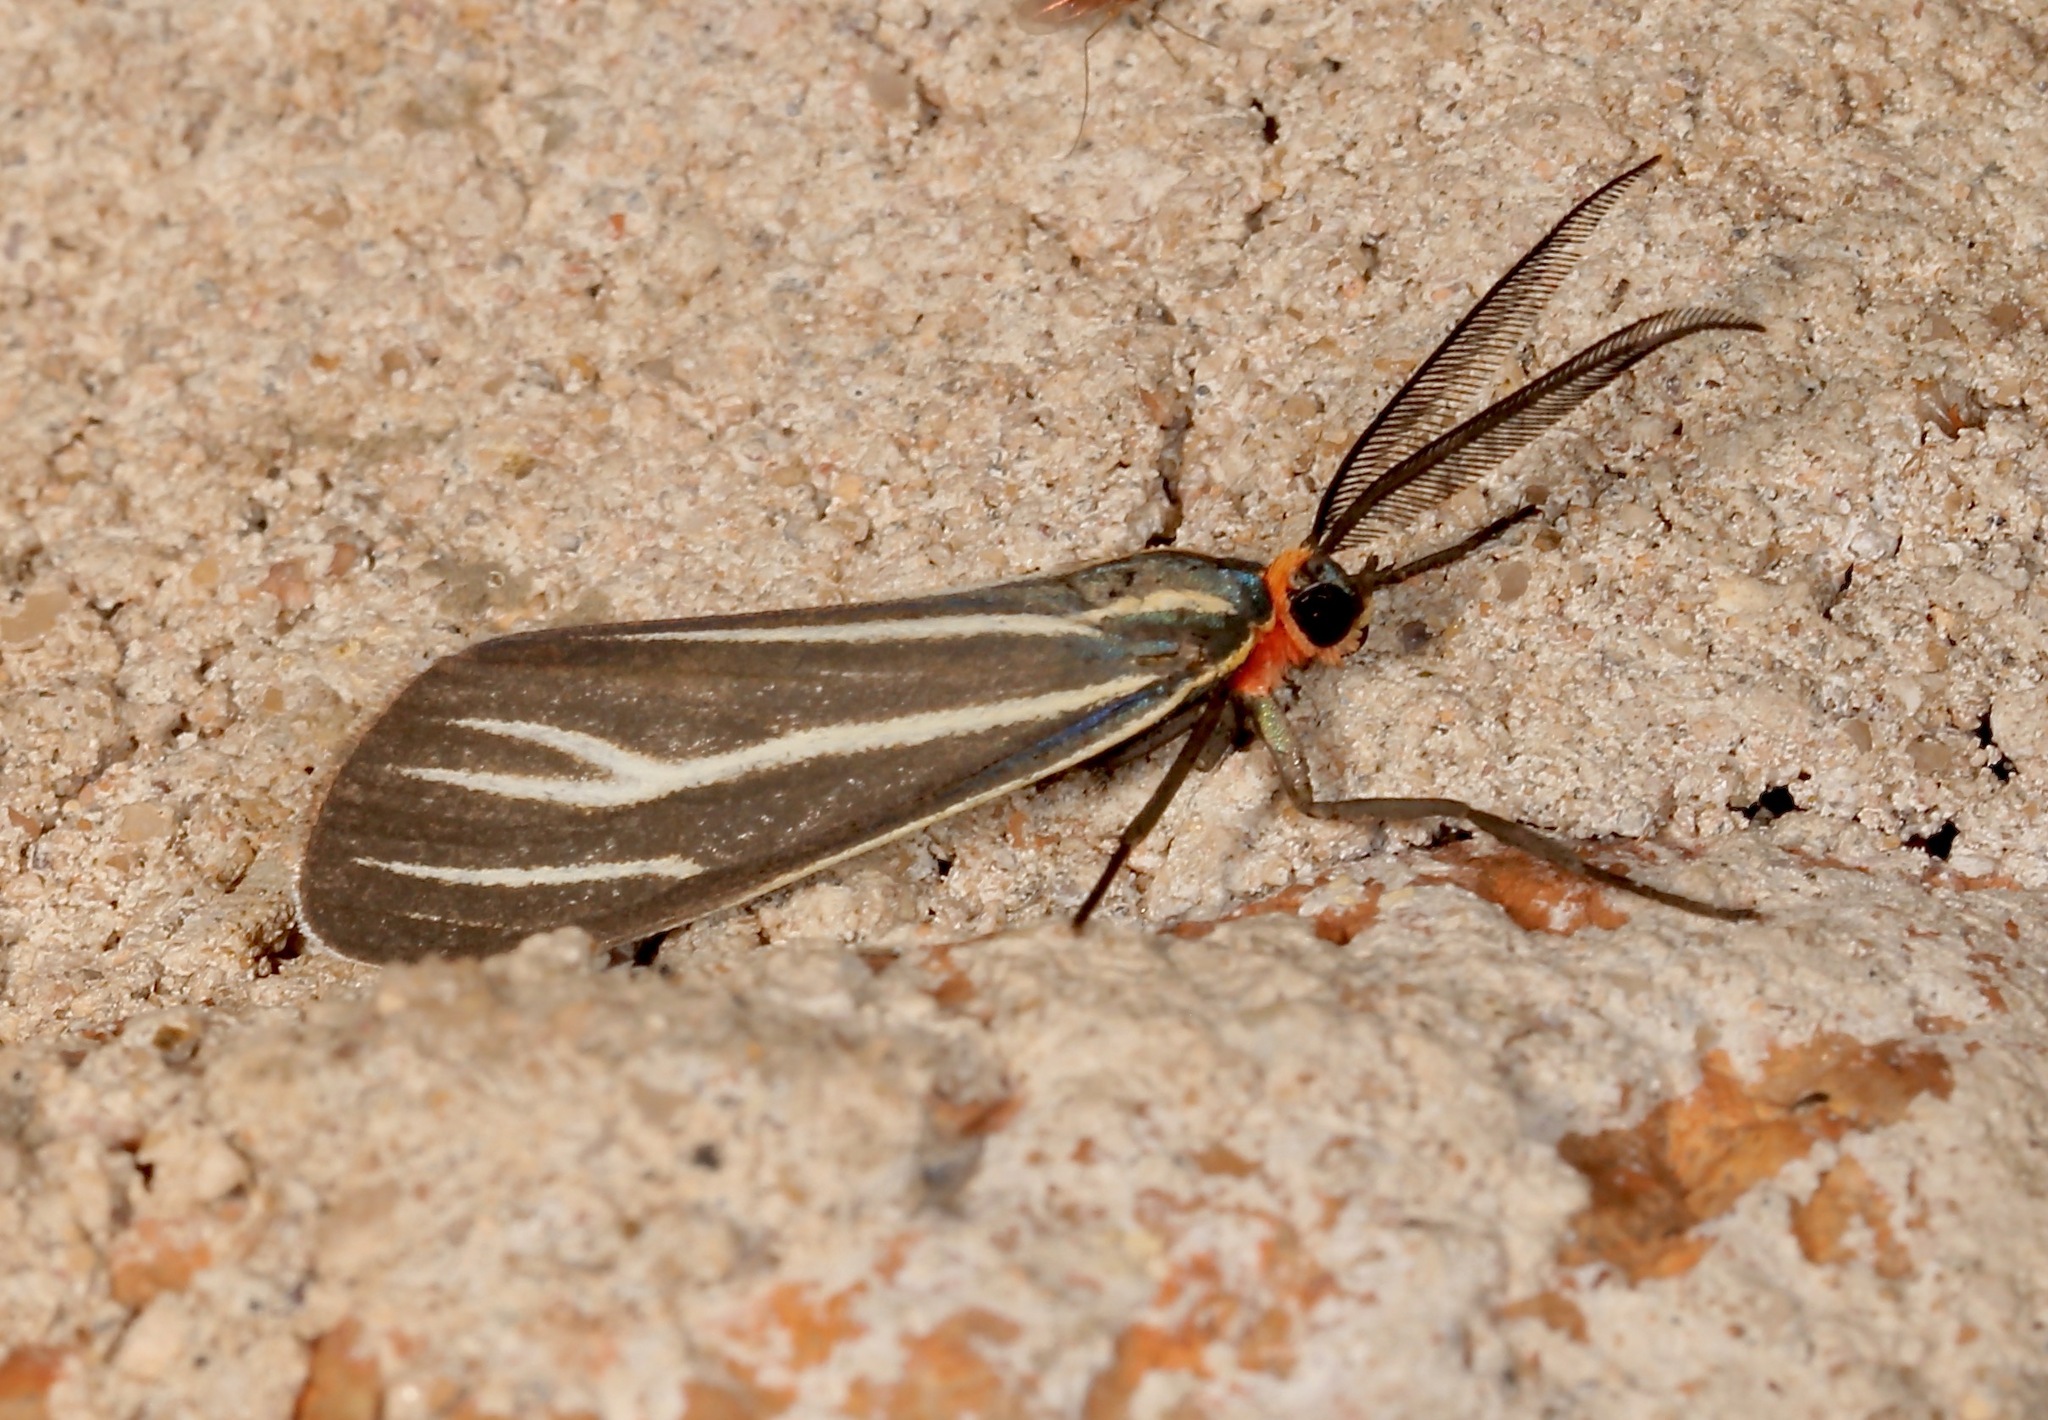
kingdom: Animalia
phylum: Arthropoda
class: Insecta
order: Lepidoptera
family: Erebidae
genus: Ctenucha
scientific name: Ctenucha venosa
